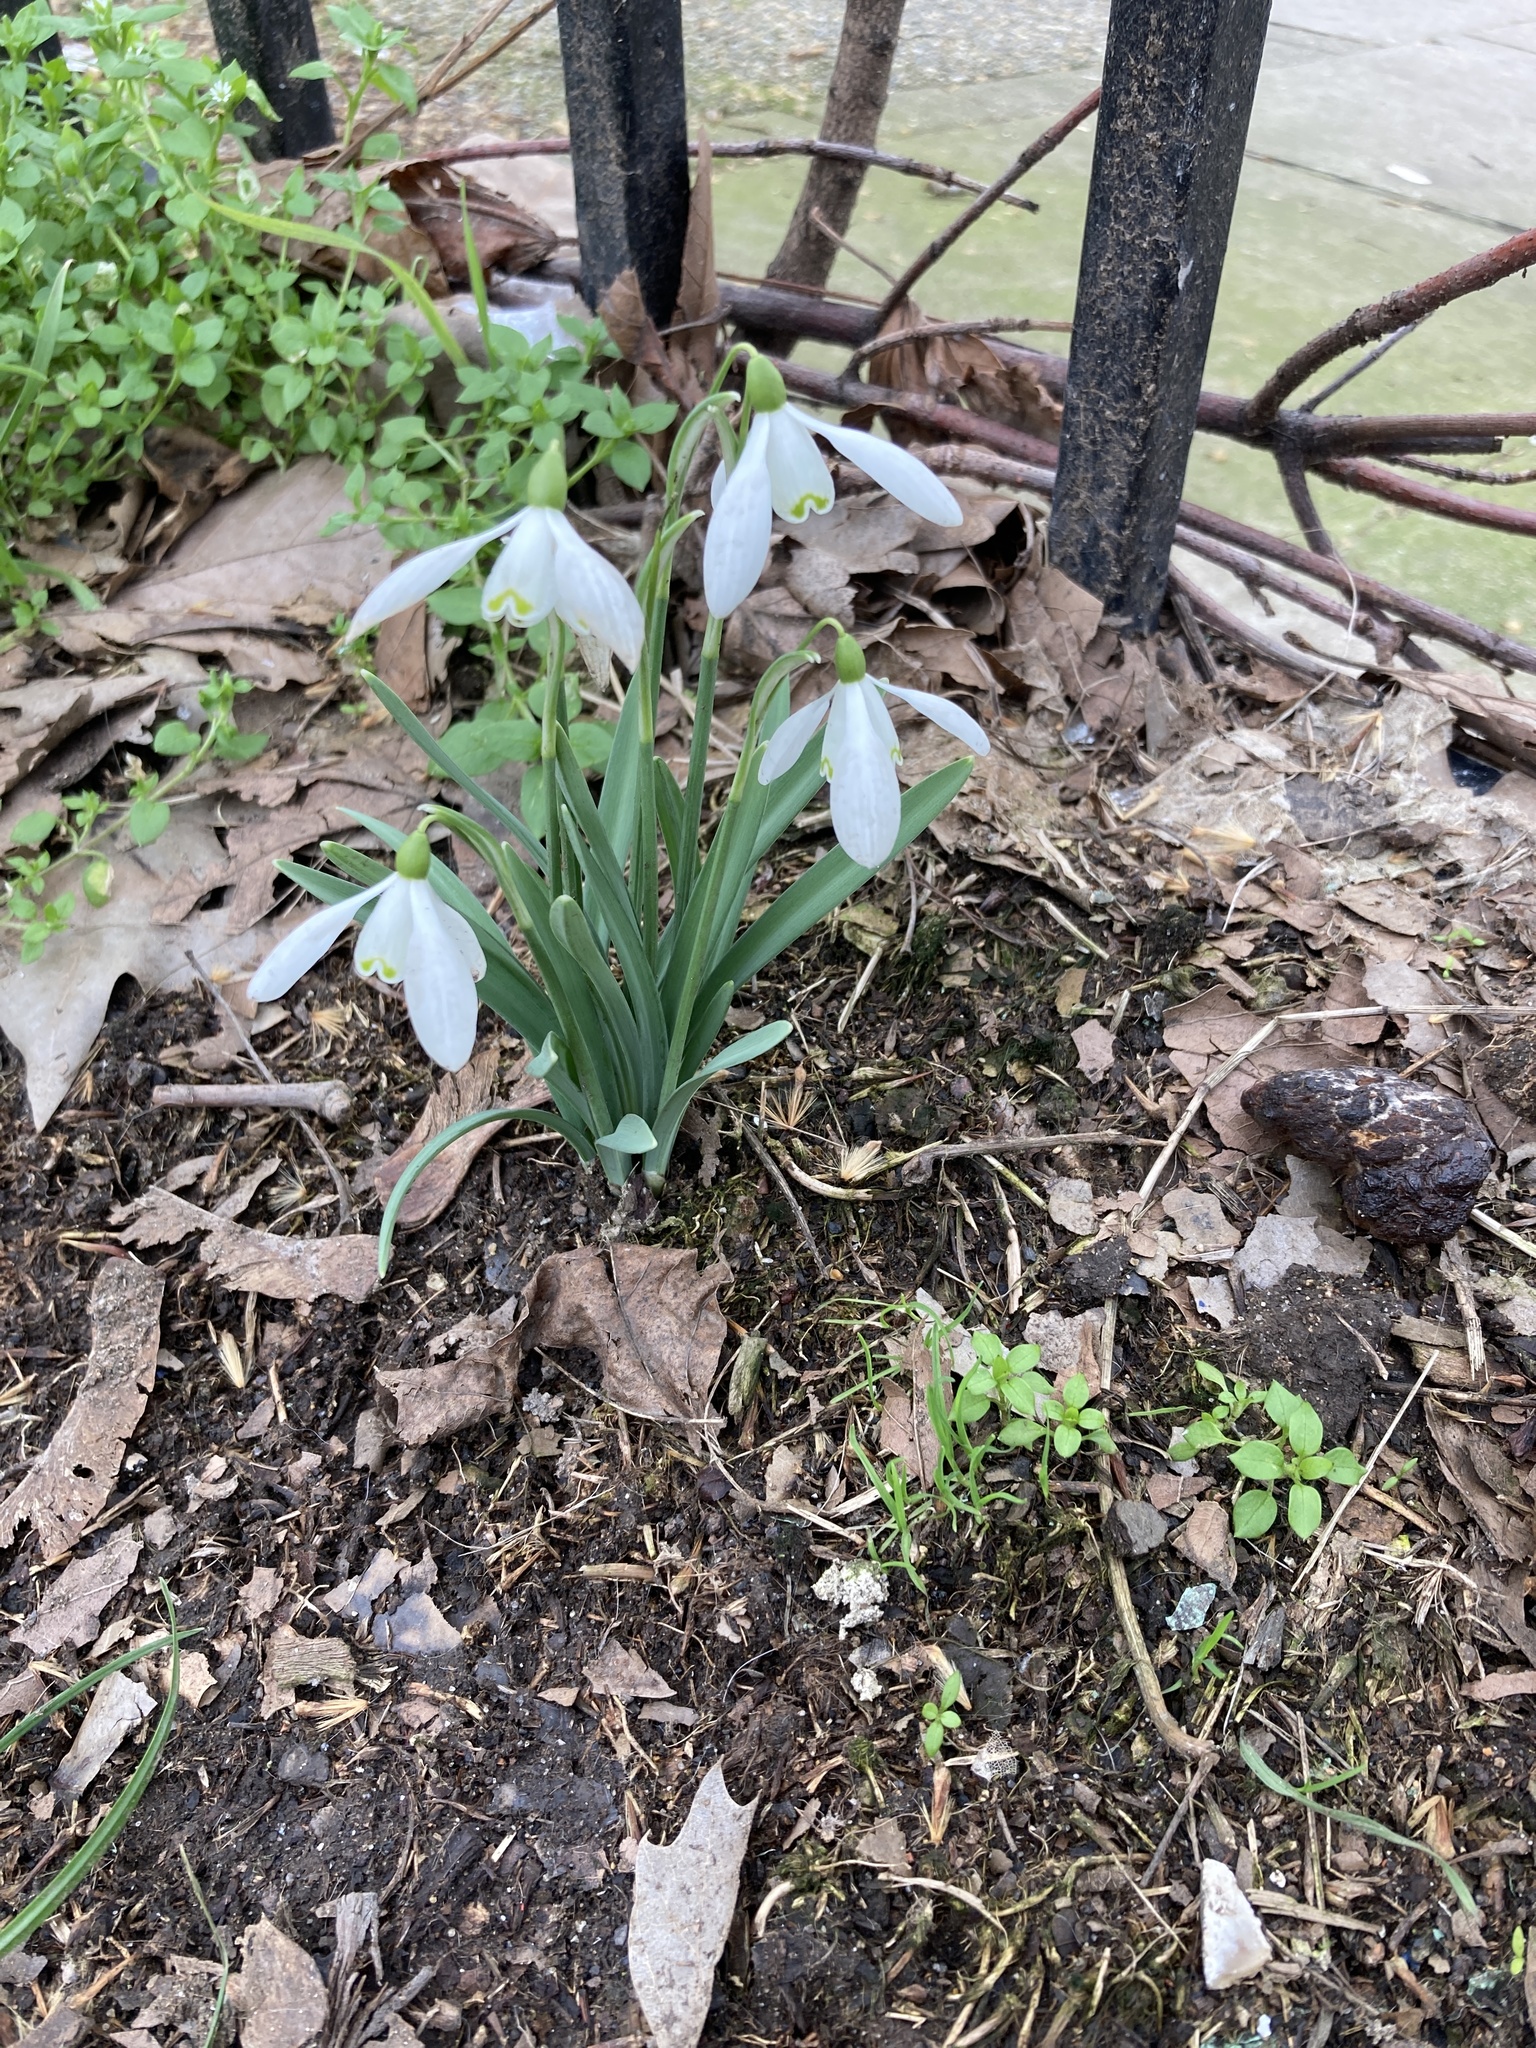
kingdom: Plantae
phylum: Tracheophyta
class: Liliopsida
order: Asparagales
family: Amaryllidaceae
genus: Galanthus
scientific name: Galanthus nivalis
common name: Snowdrop
